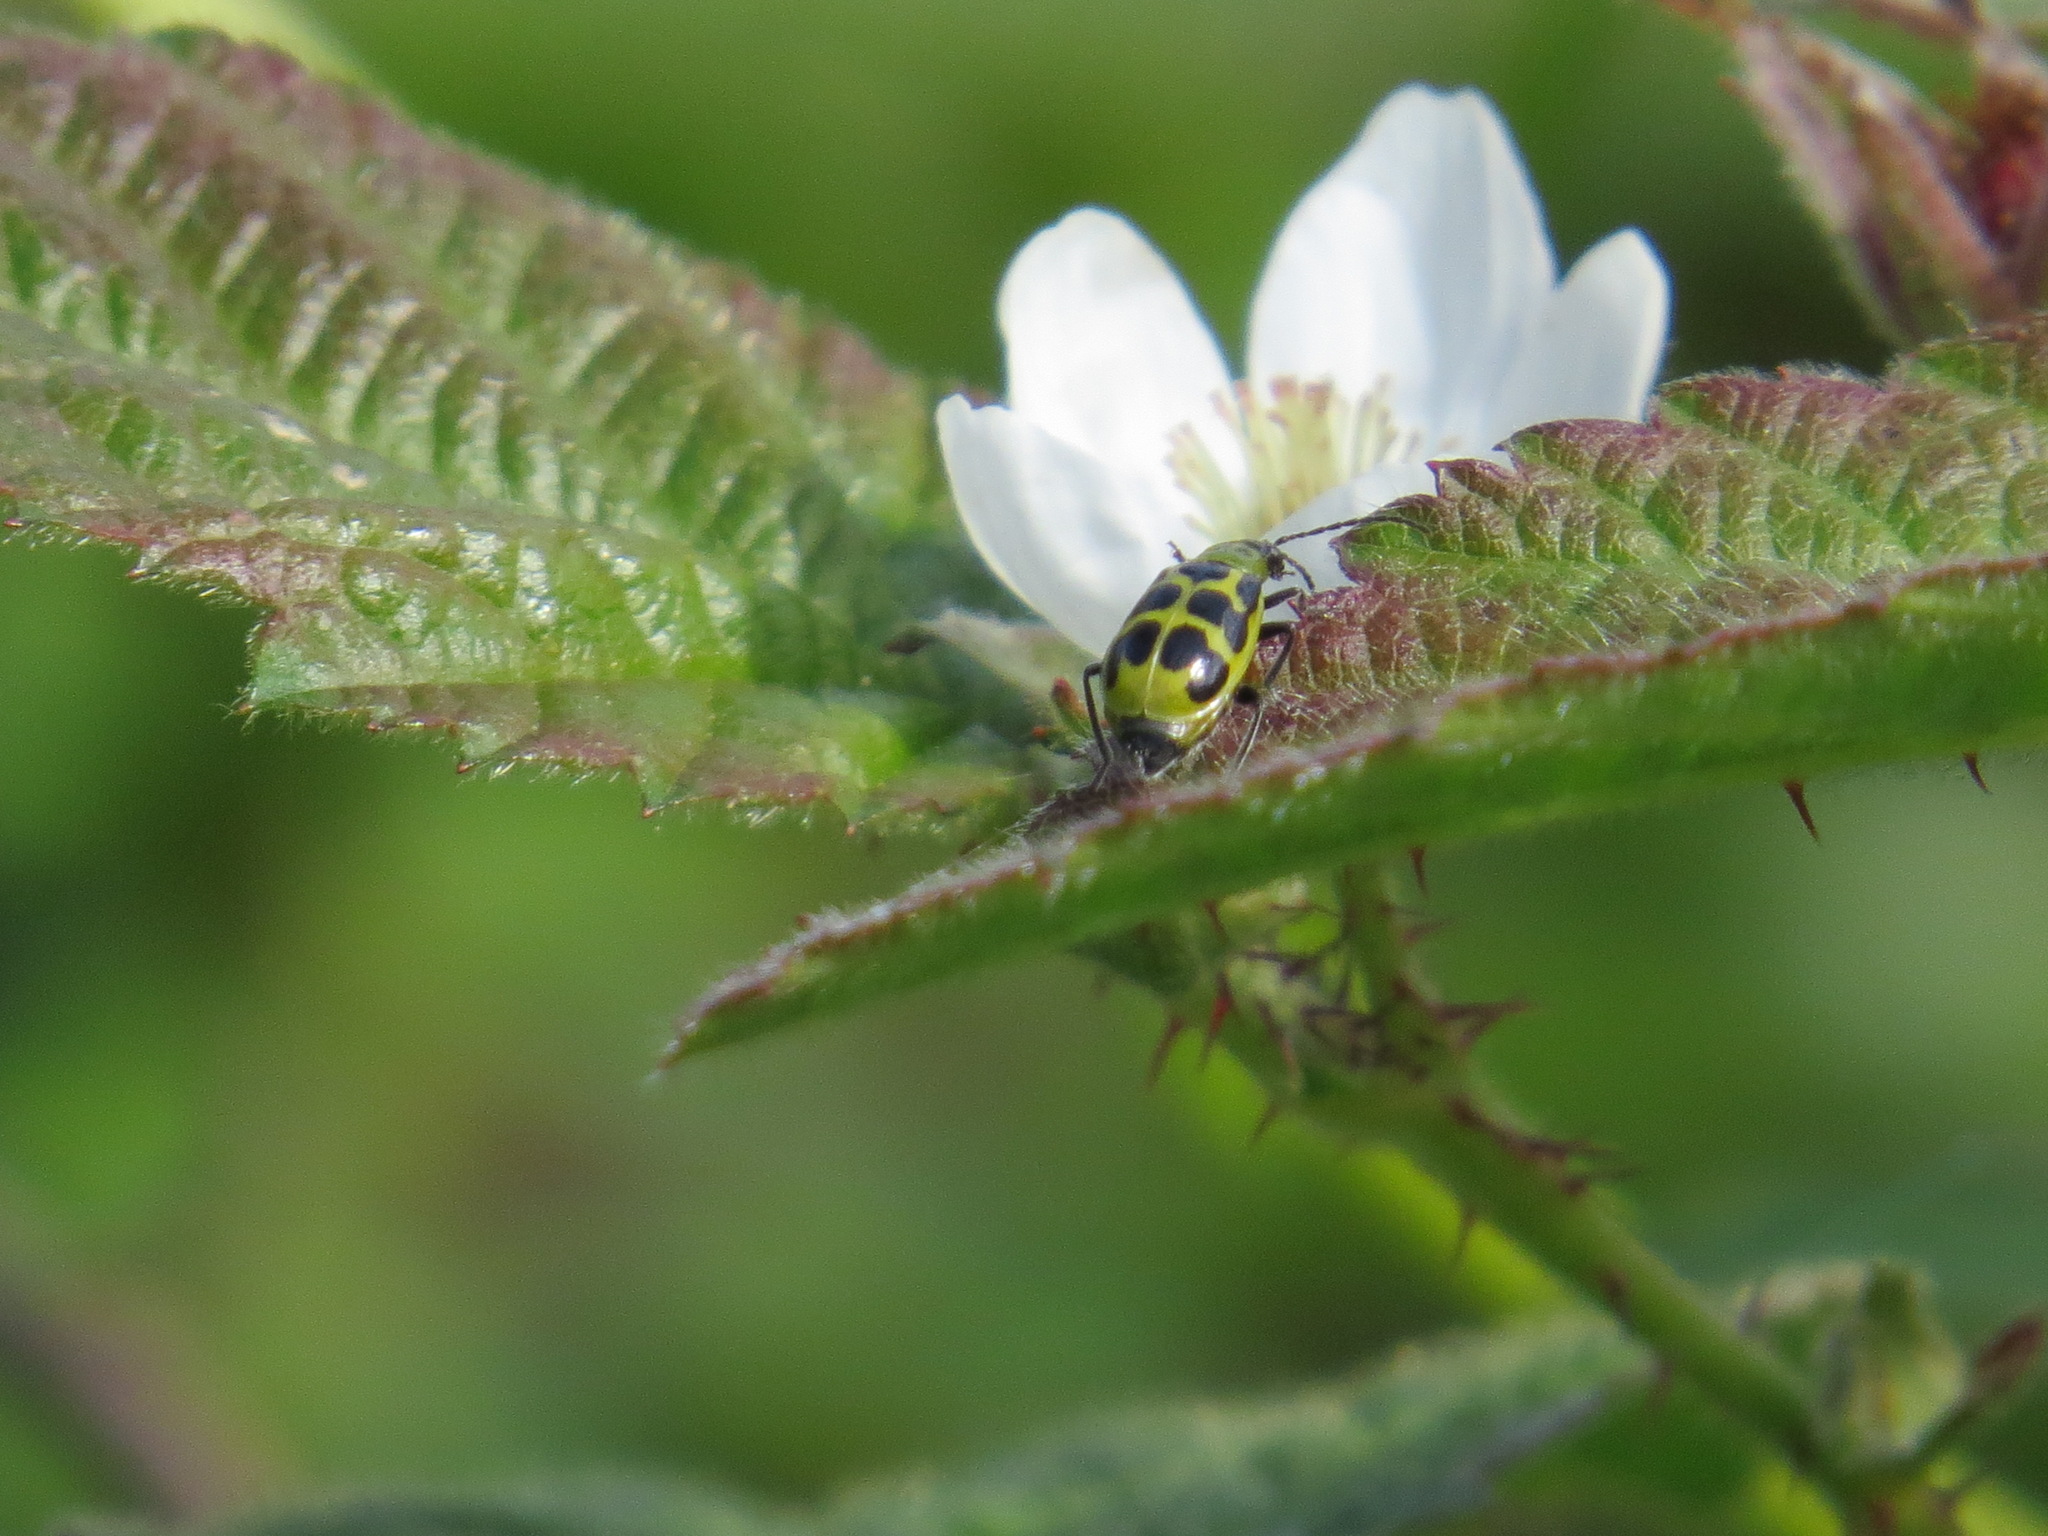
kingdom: Animalia
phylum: Arthropoda
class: Insecta
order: Coleoptera
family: Chrysomelidae
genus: Diabrotica
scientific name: Diabrotica undecimpunctata
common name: Spotted cucumber beetle
